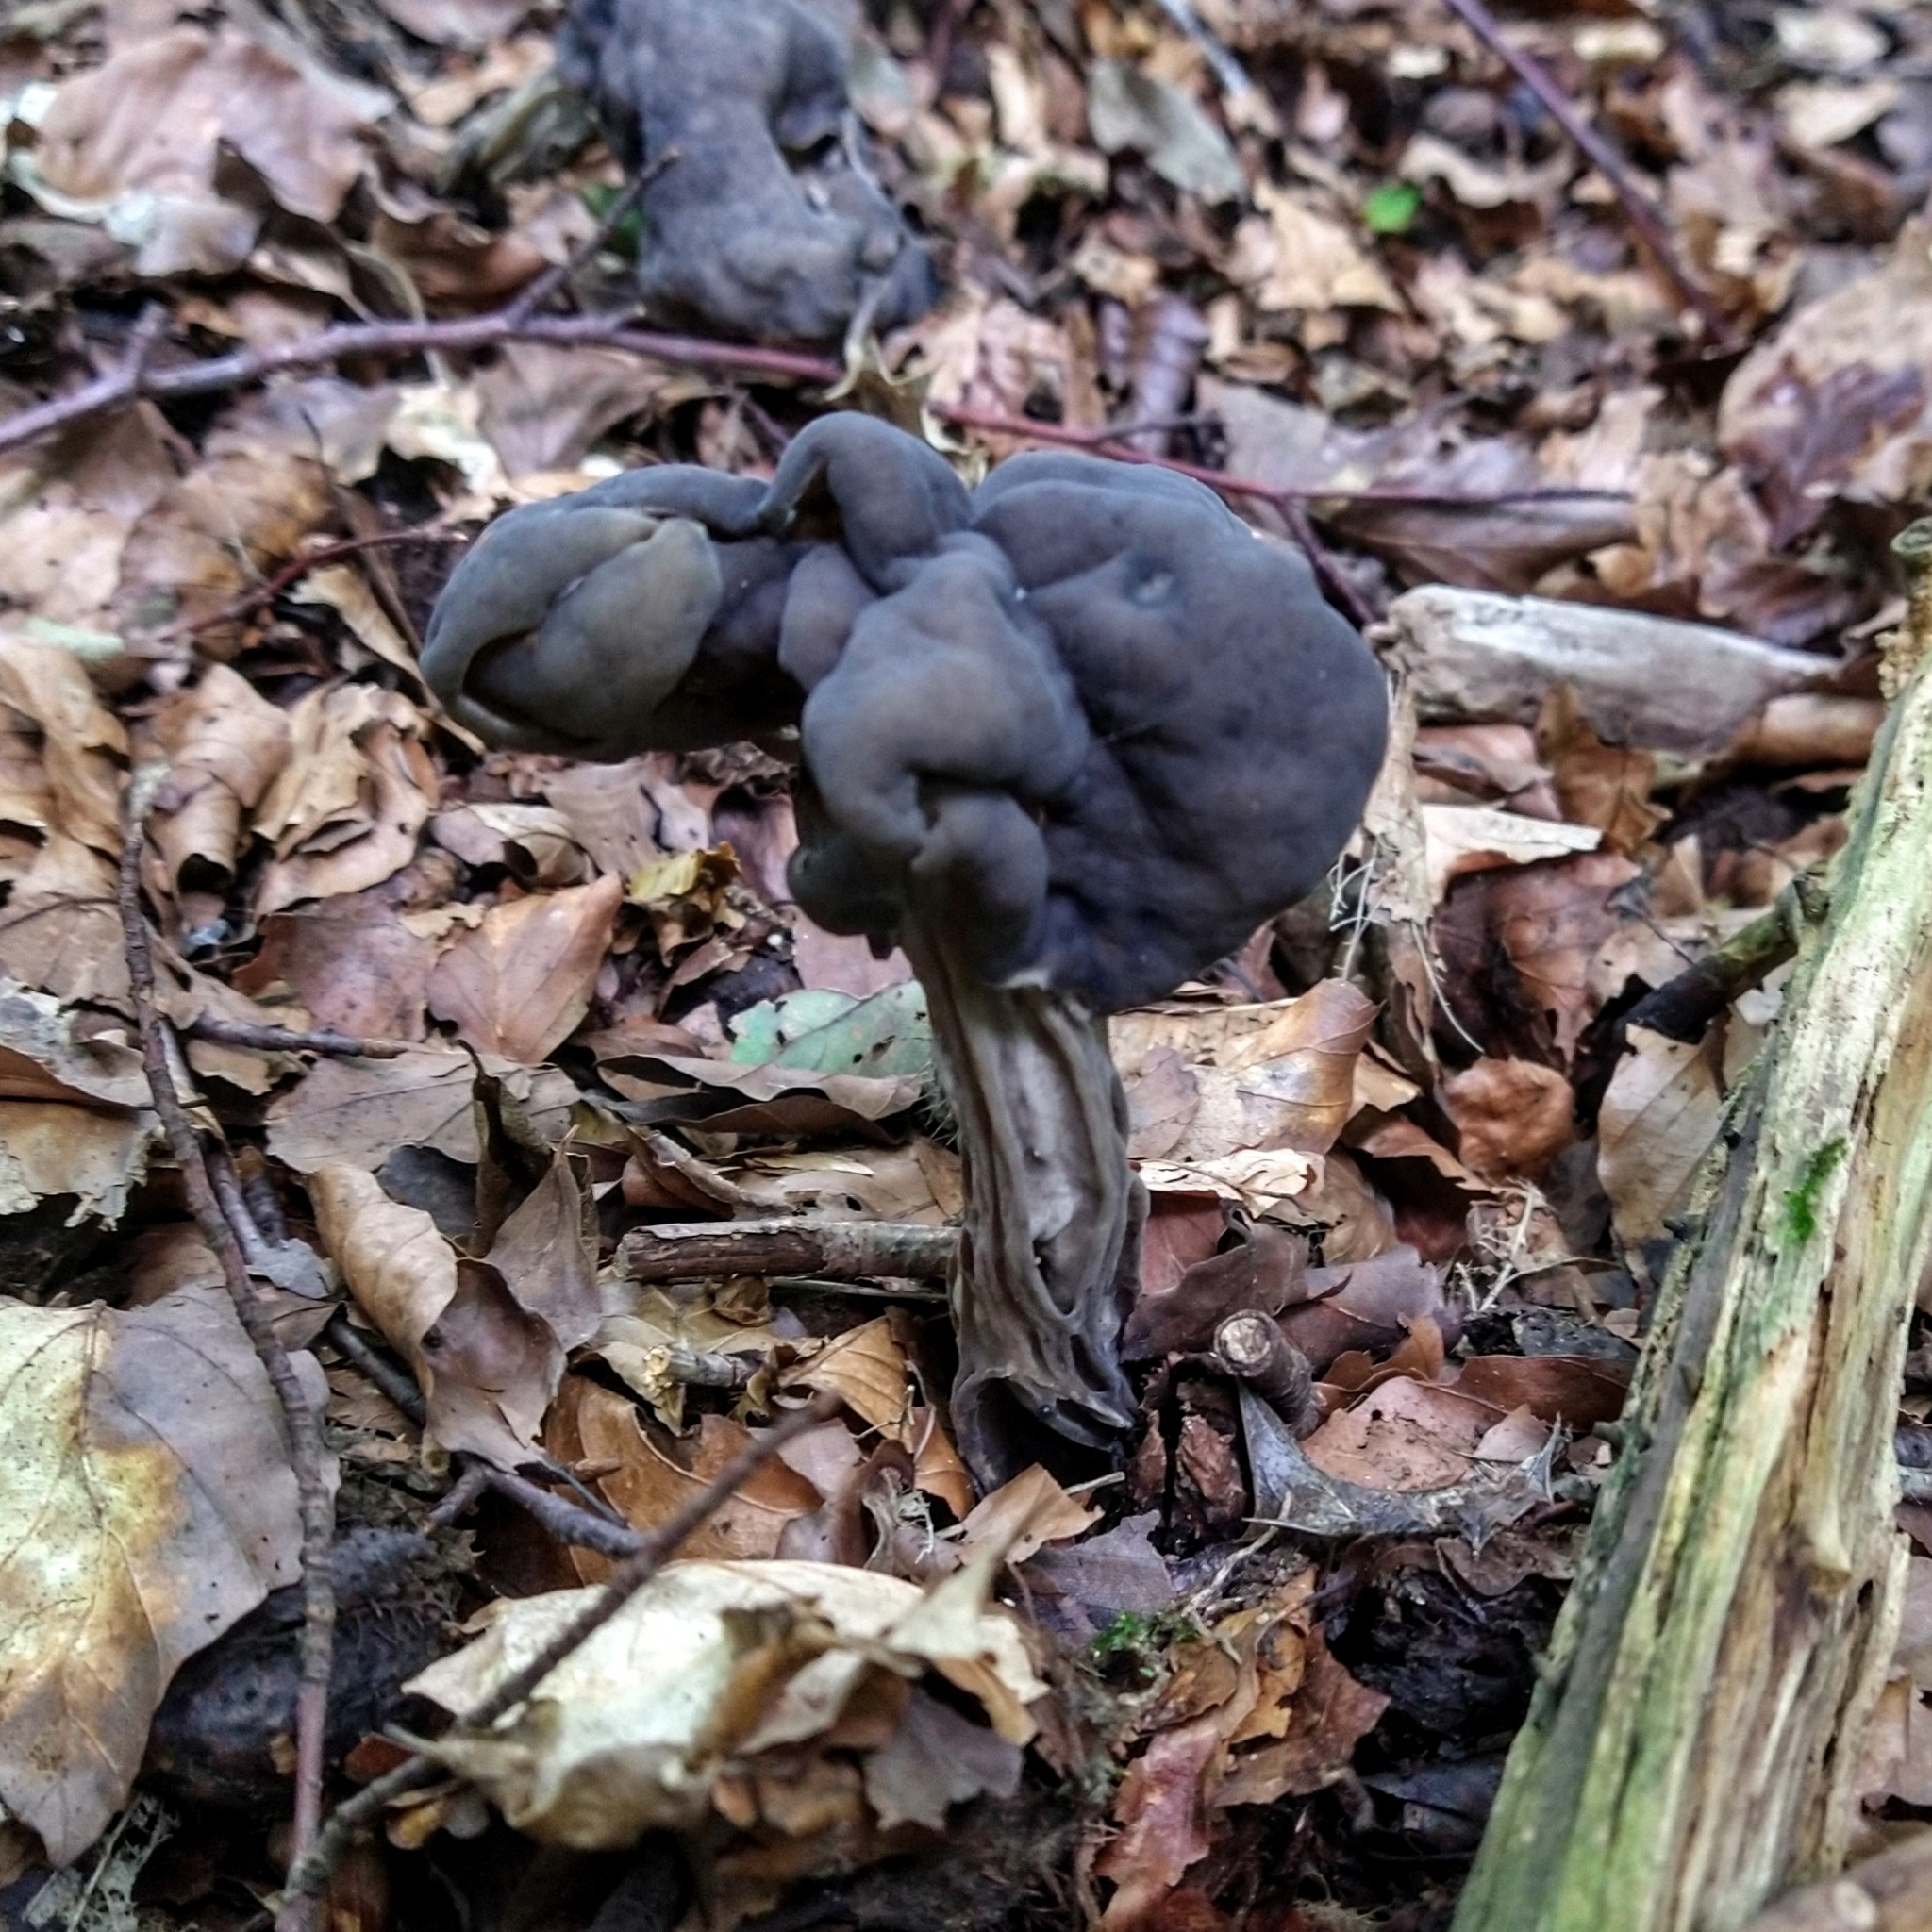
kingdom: Fungi
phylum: Ascomycota
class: Pezizomycetes
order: Pezizales
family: Helvellaceae
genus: Helvella
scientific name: Helvella lacunosa
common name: Elfin saddle
